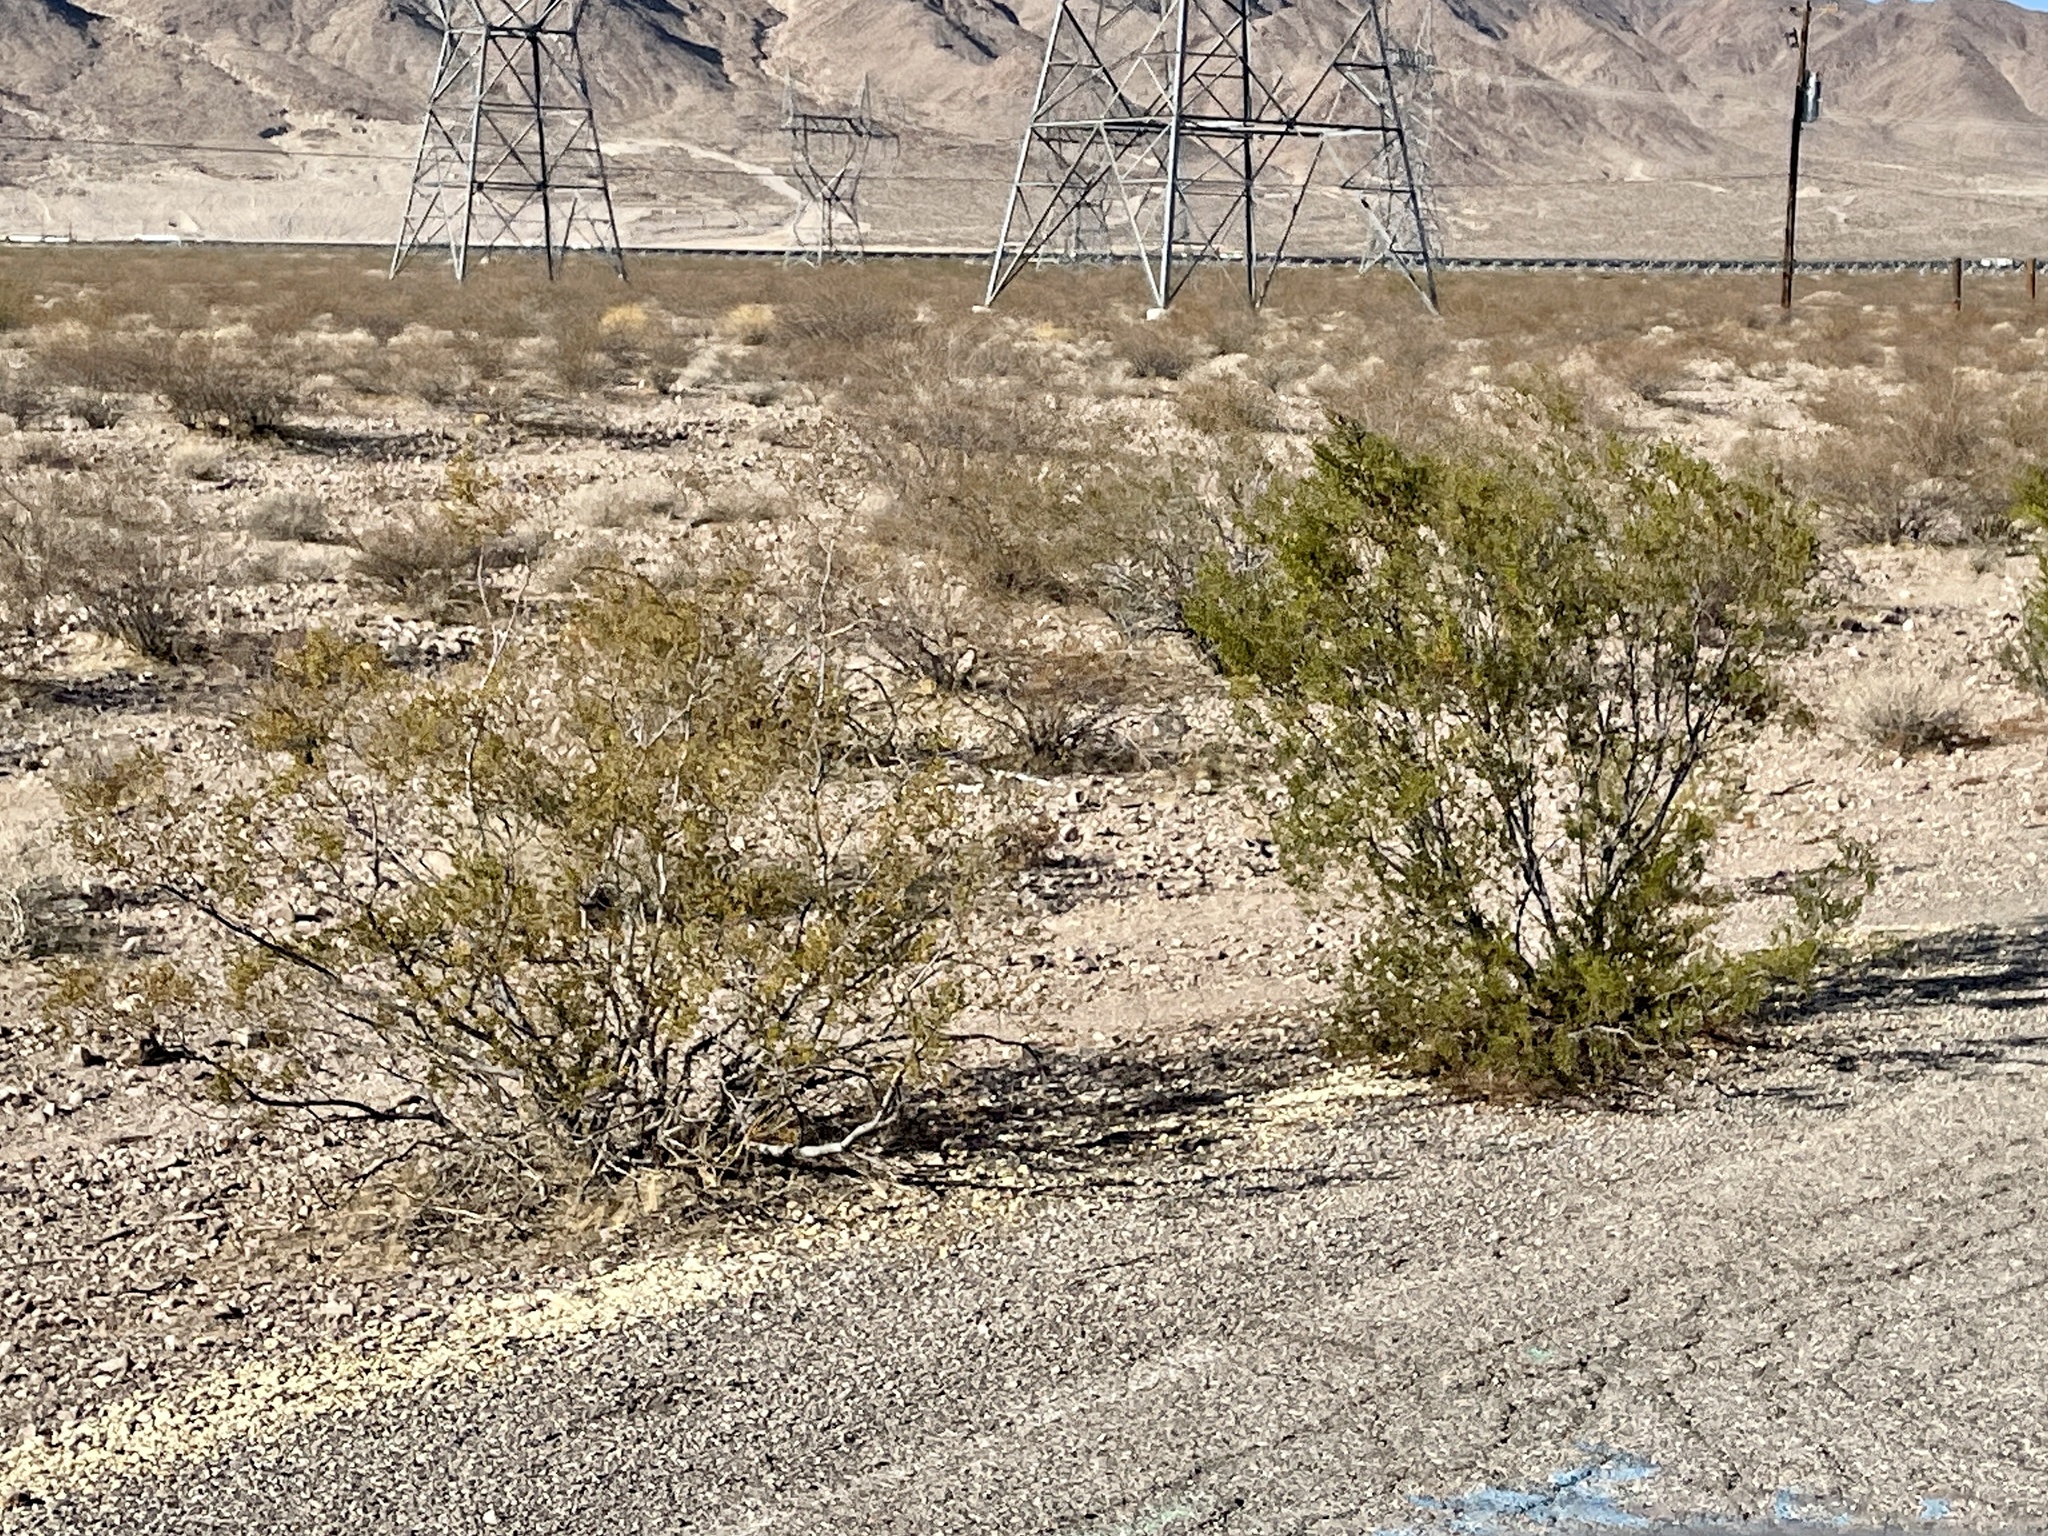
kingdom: Plantae
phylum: Tracheophyta
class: Magnoliopsida
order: Zygophyllales
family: Zygophyllaceae
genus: Larrea
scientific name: Larrea tridentata
